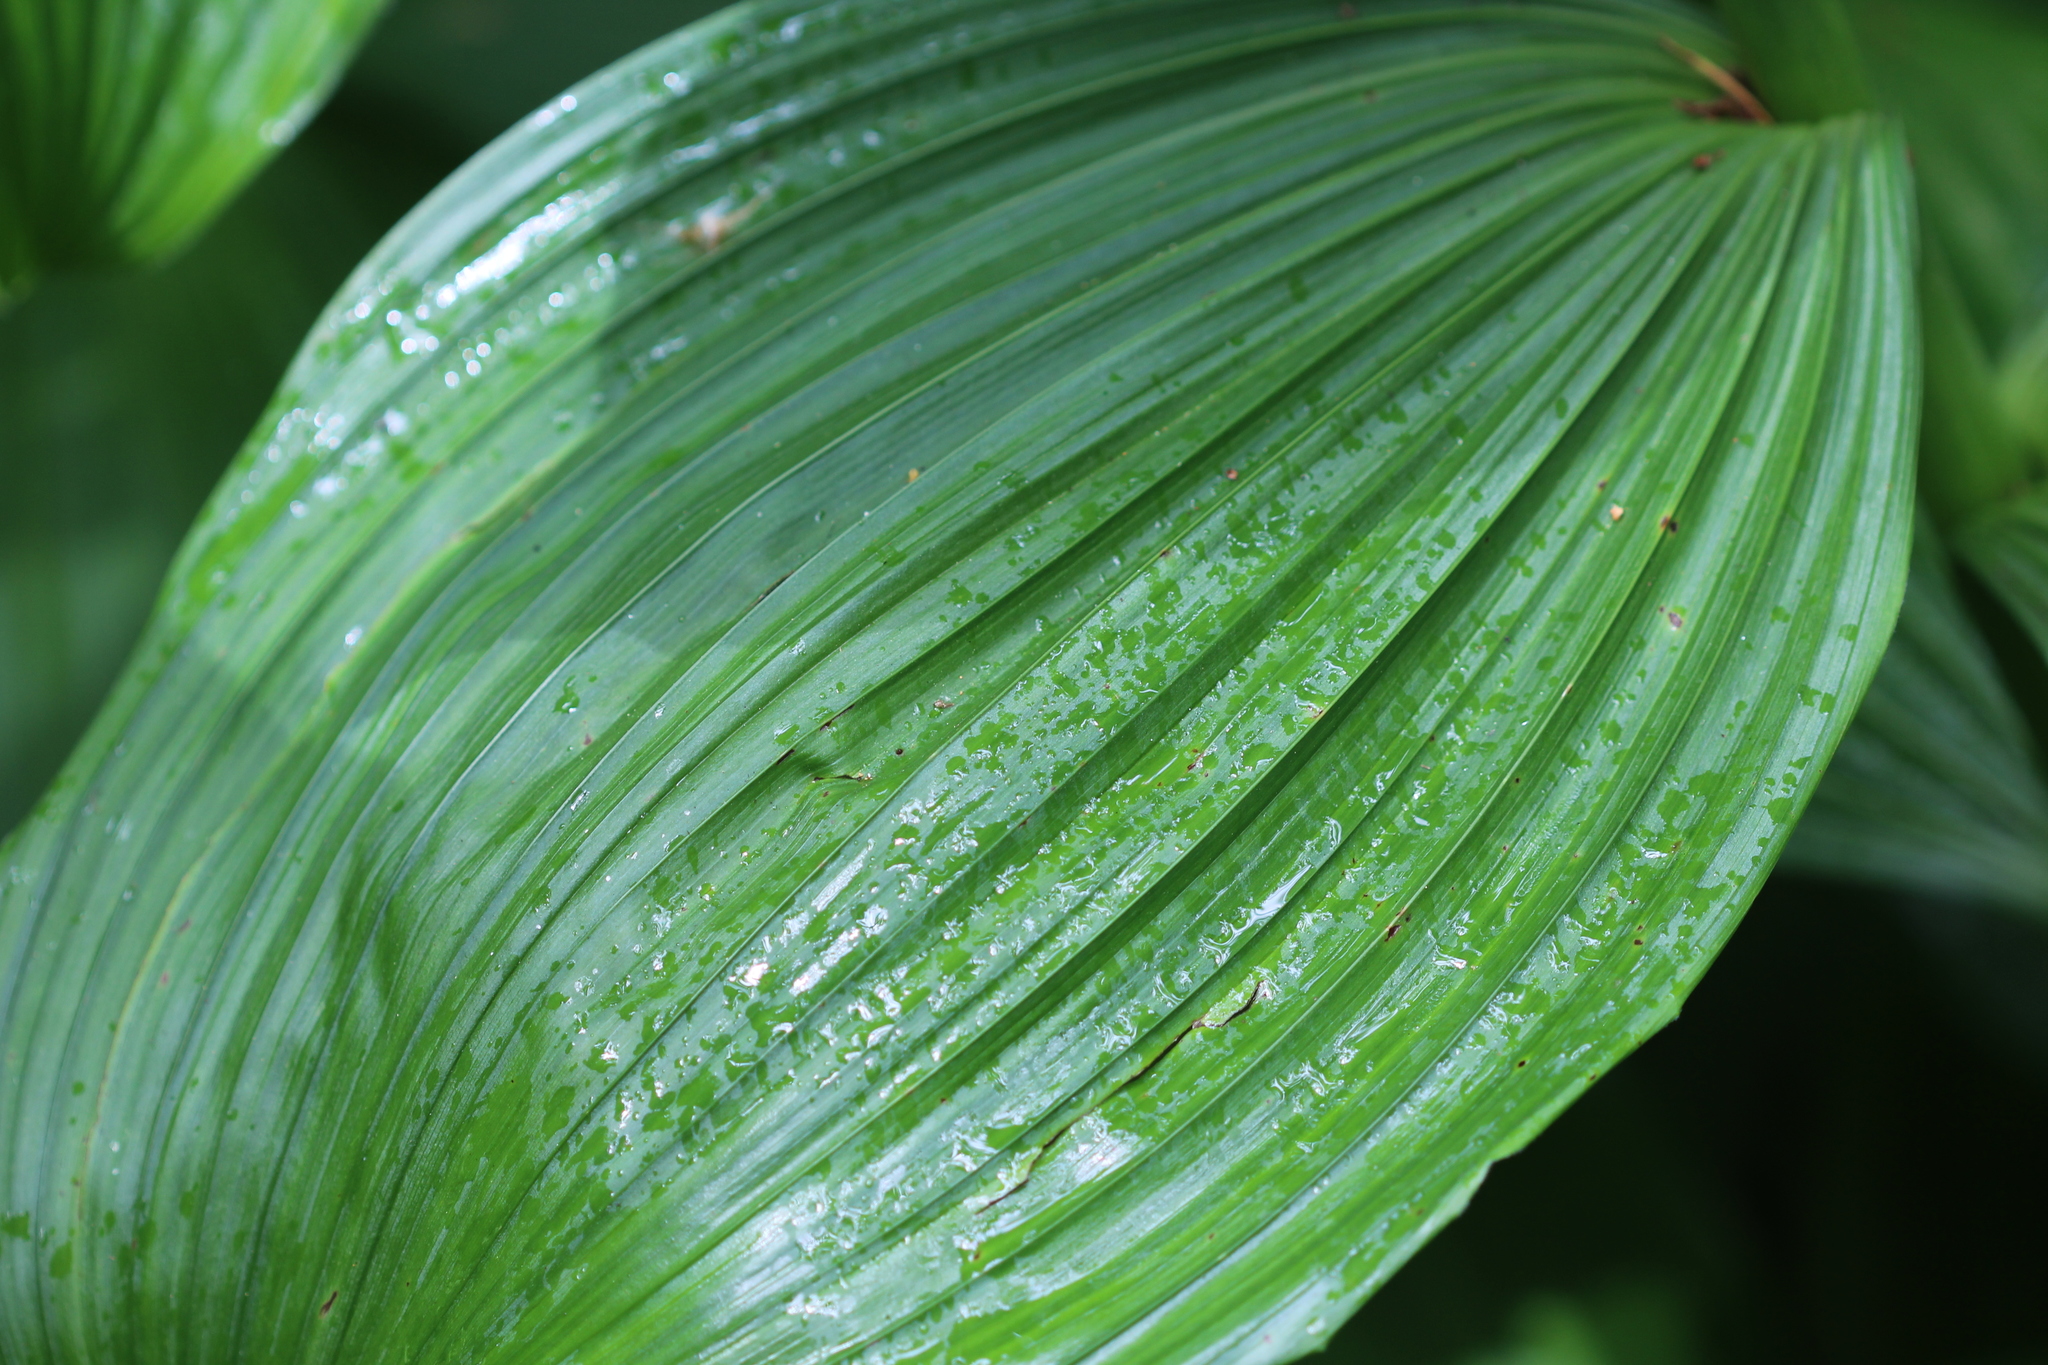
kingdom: Plantae
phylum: Tracheophyta
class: Liliopsida
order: Liliales
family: Melanthiaceae
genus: Veratrum
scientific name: Veratrum viride
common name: American false hellebore
